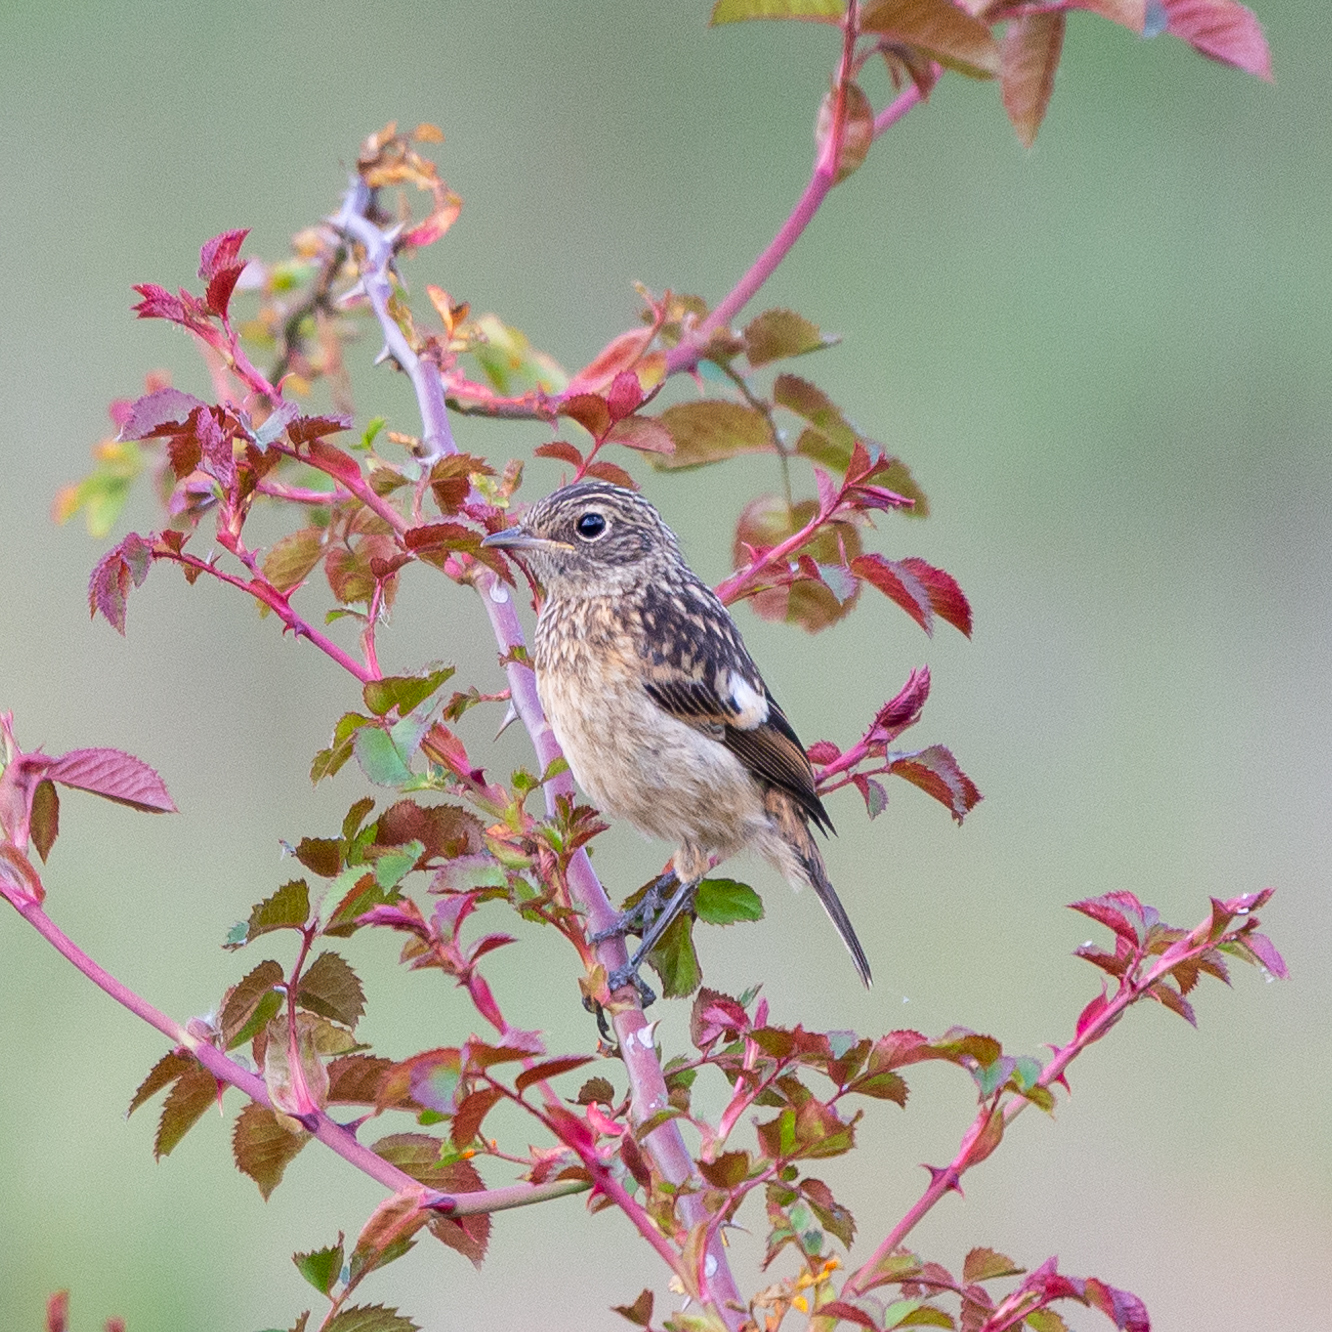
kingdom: Animalia
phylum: Chordata
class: Aves
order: Passeriformes
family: Muscicapidae
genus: Saxicola
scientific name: Saxicola rubicola
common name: European stonechat
